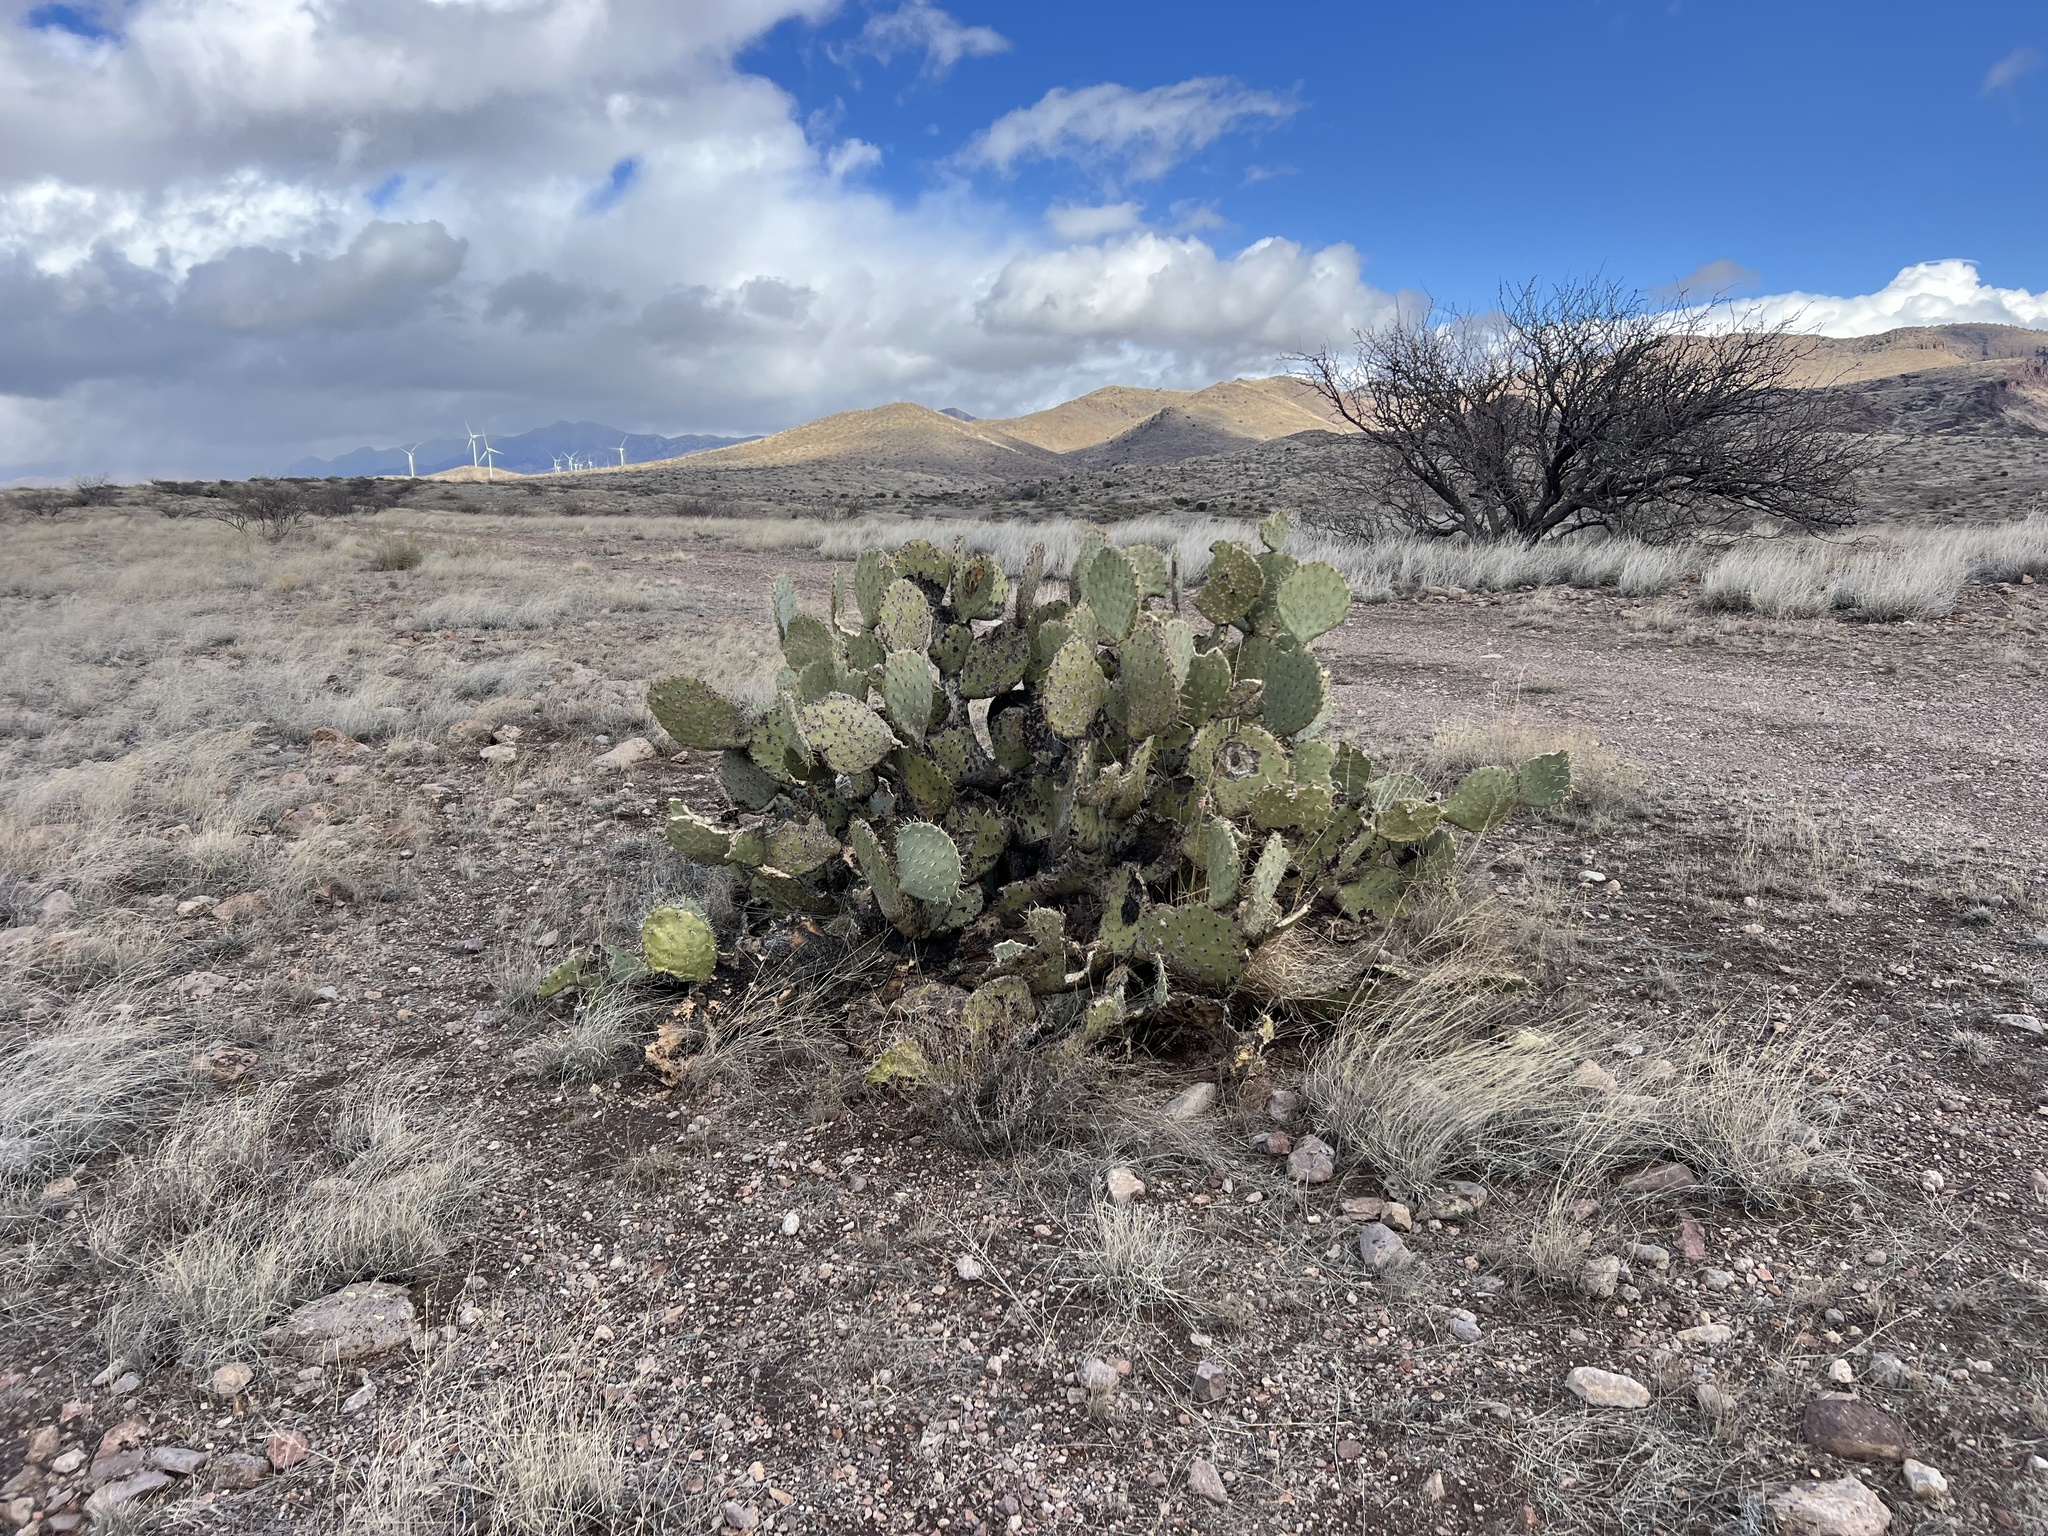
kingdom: Plantae
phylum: Tracheophyta
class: Magnoliopsida
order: Caryophyllales
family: Cactaceae
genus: Opuntia
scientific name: Opuntia engelmannii
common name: Cactus-apple
